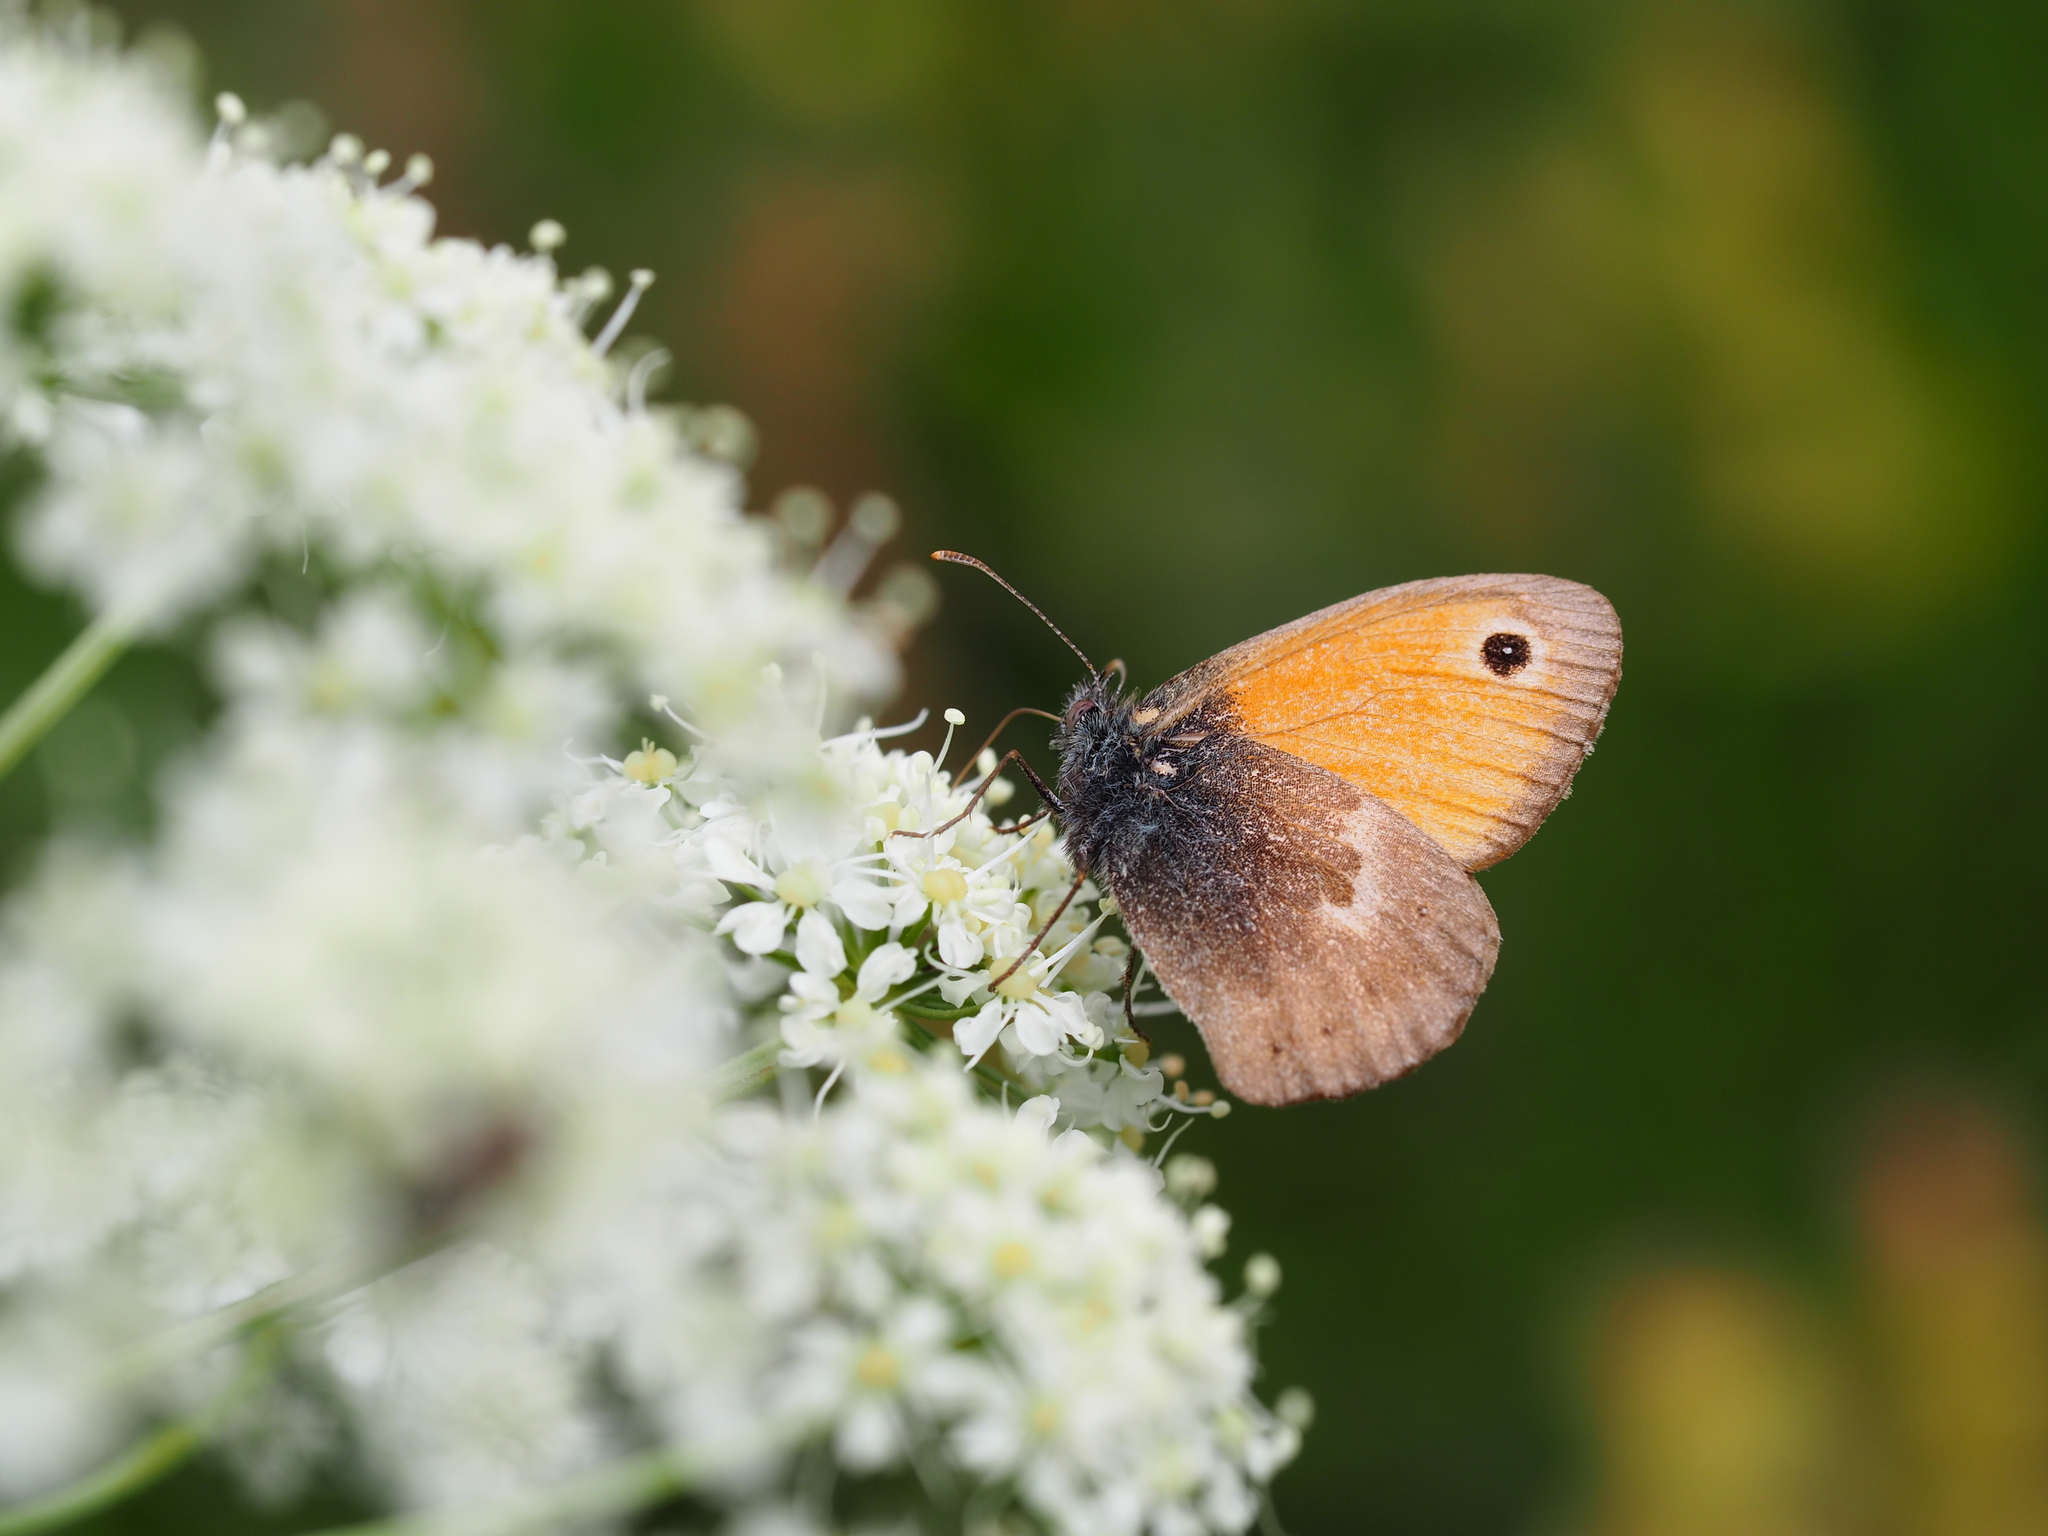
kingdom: Animalia
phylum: Arthropoda
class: Insecta
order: Lepidoptera
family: Nymphalidae
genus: Coenonympha
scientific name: Coenonympha pamphilus
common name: Small heath
